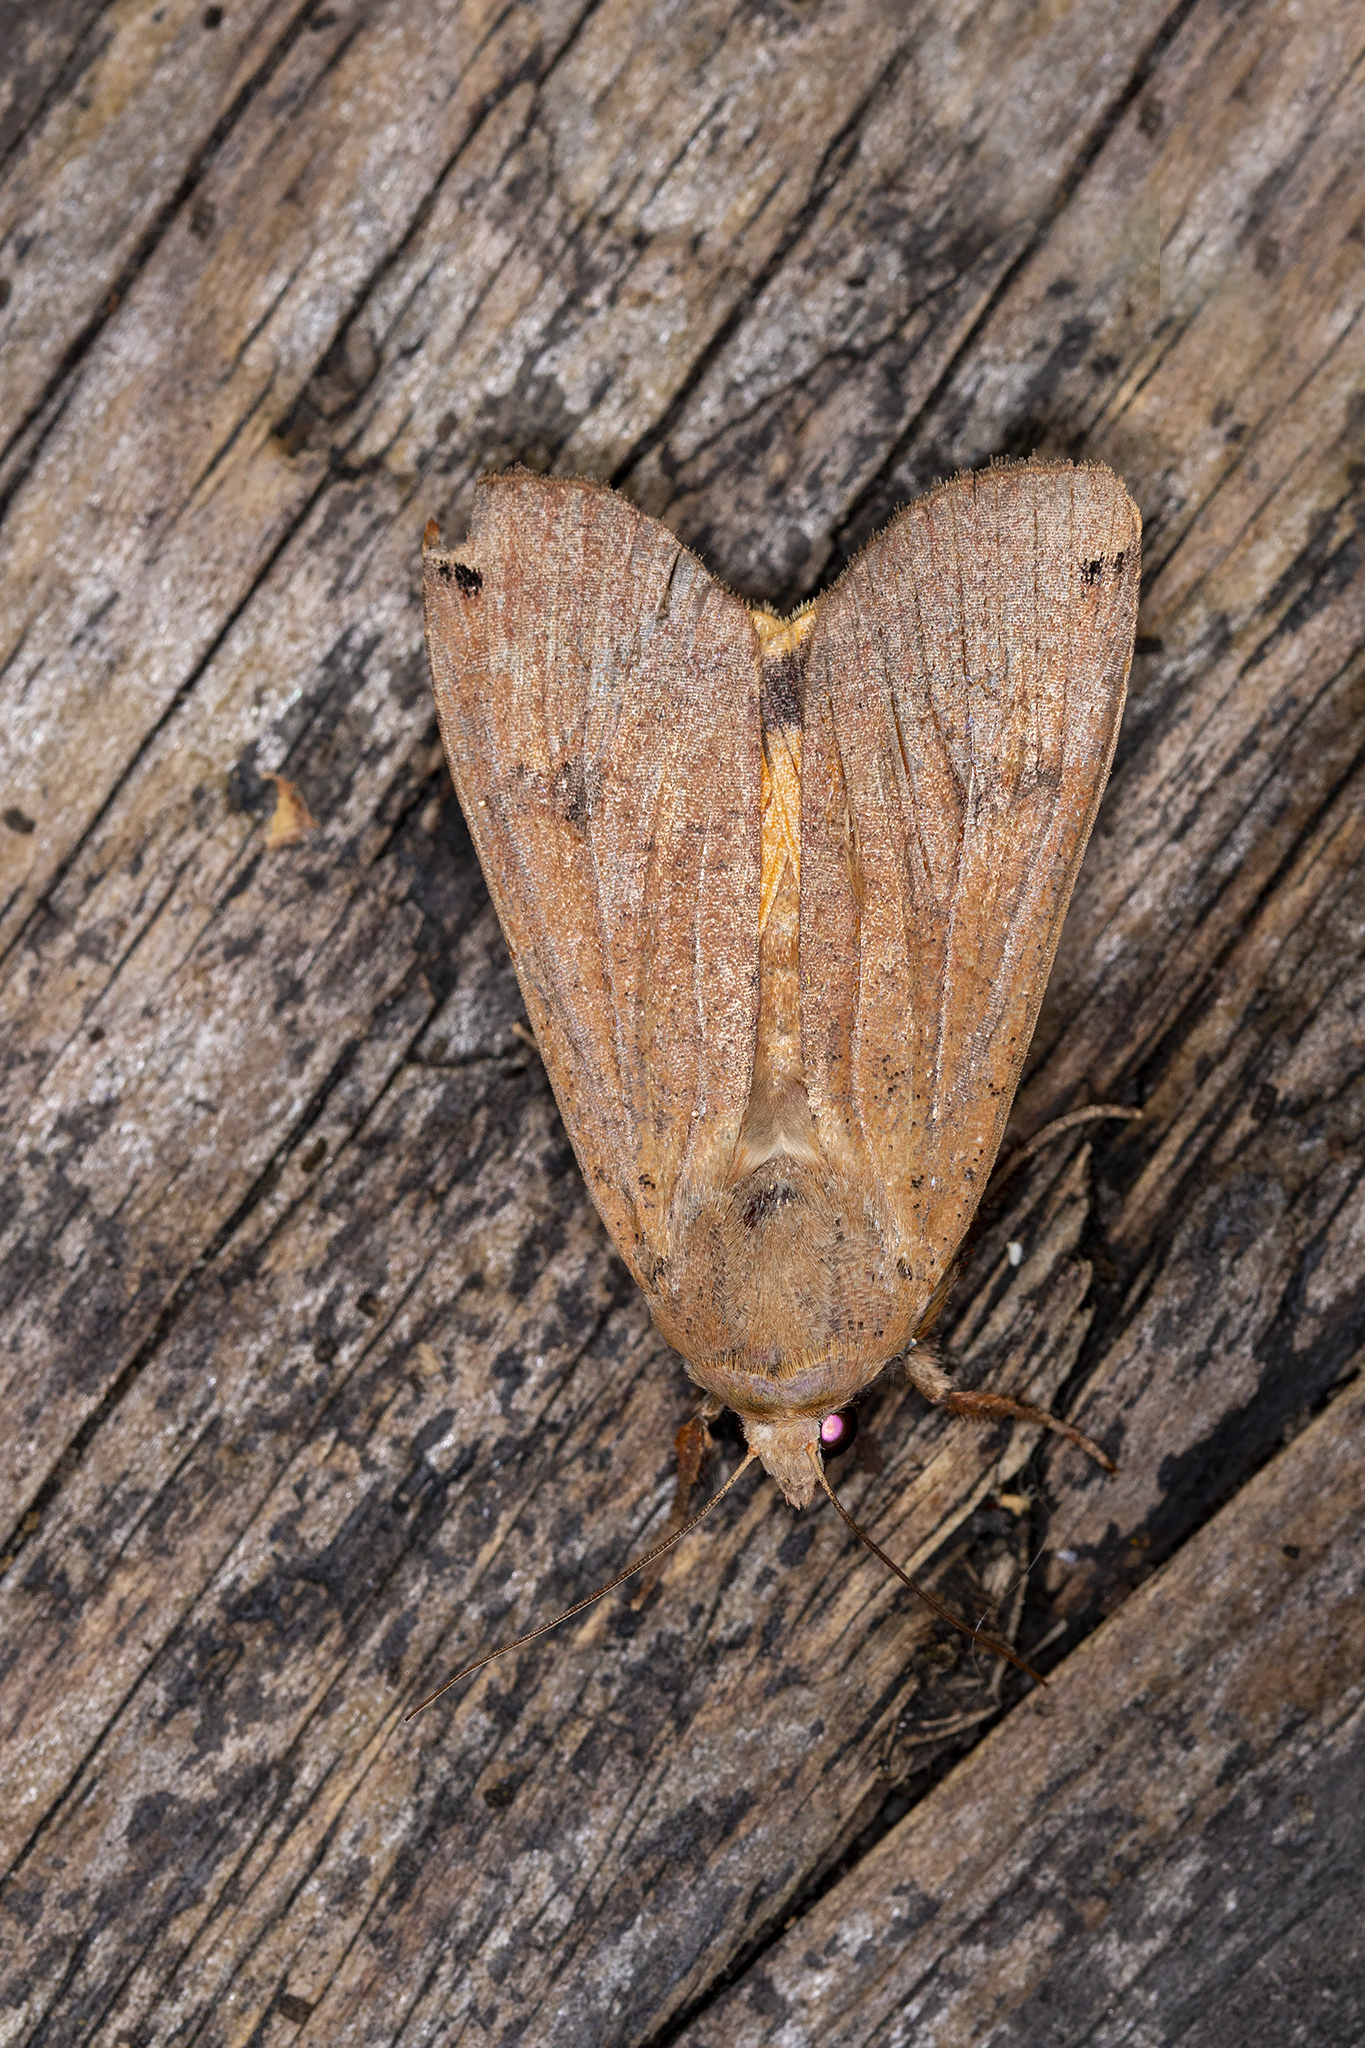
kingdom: Animalia
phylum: Arthropoda
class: Insecta
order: Lepidoptera
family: Noctuidae
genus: Noctua
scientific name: Noctua pronuba
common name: Large yellow underwing
